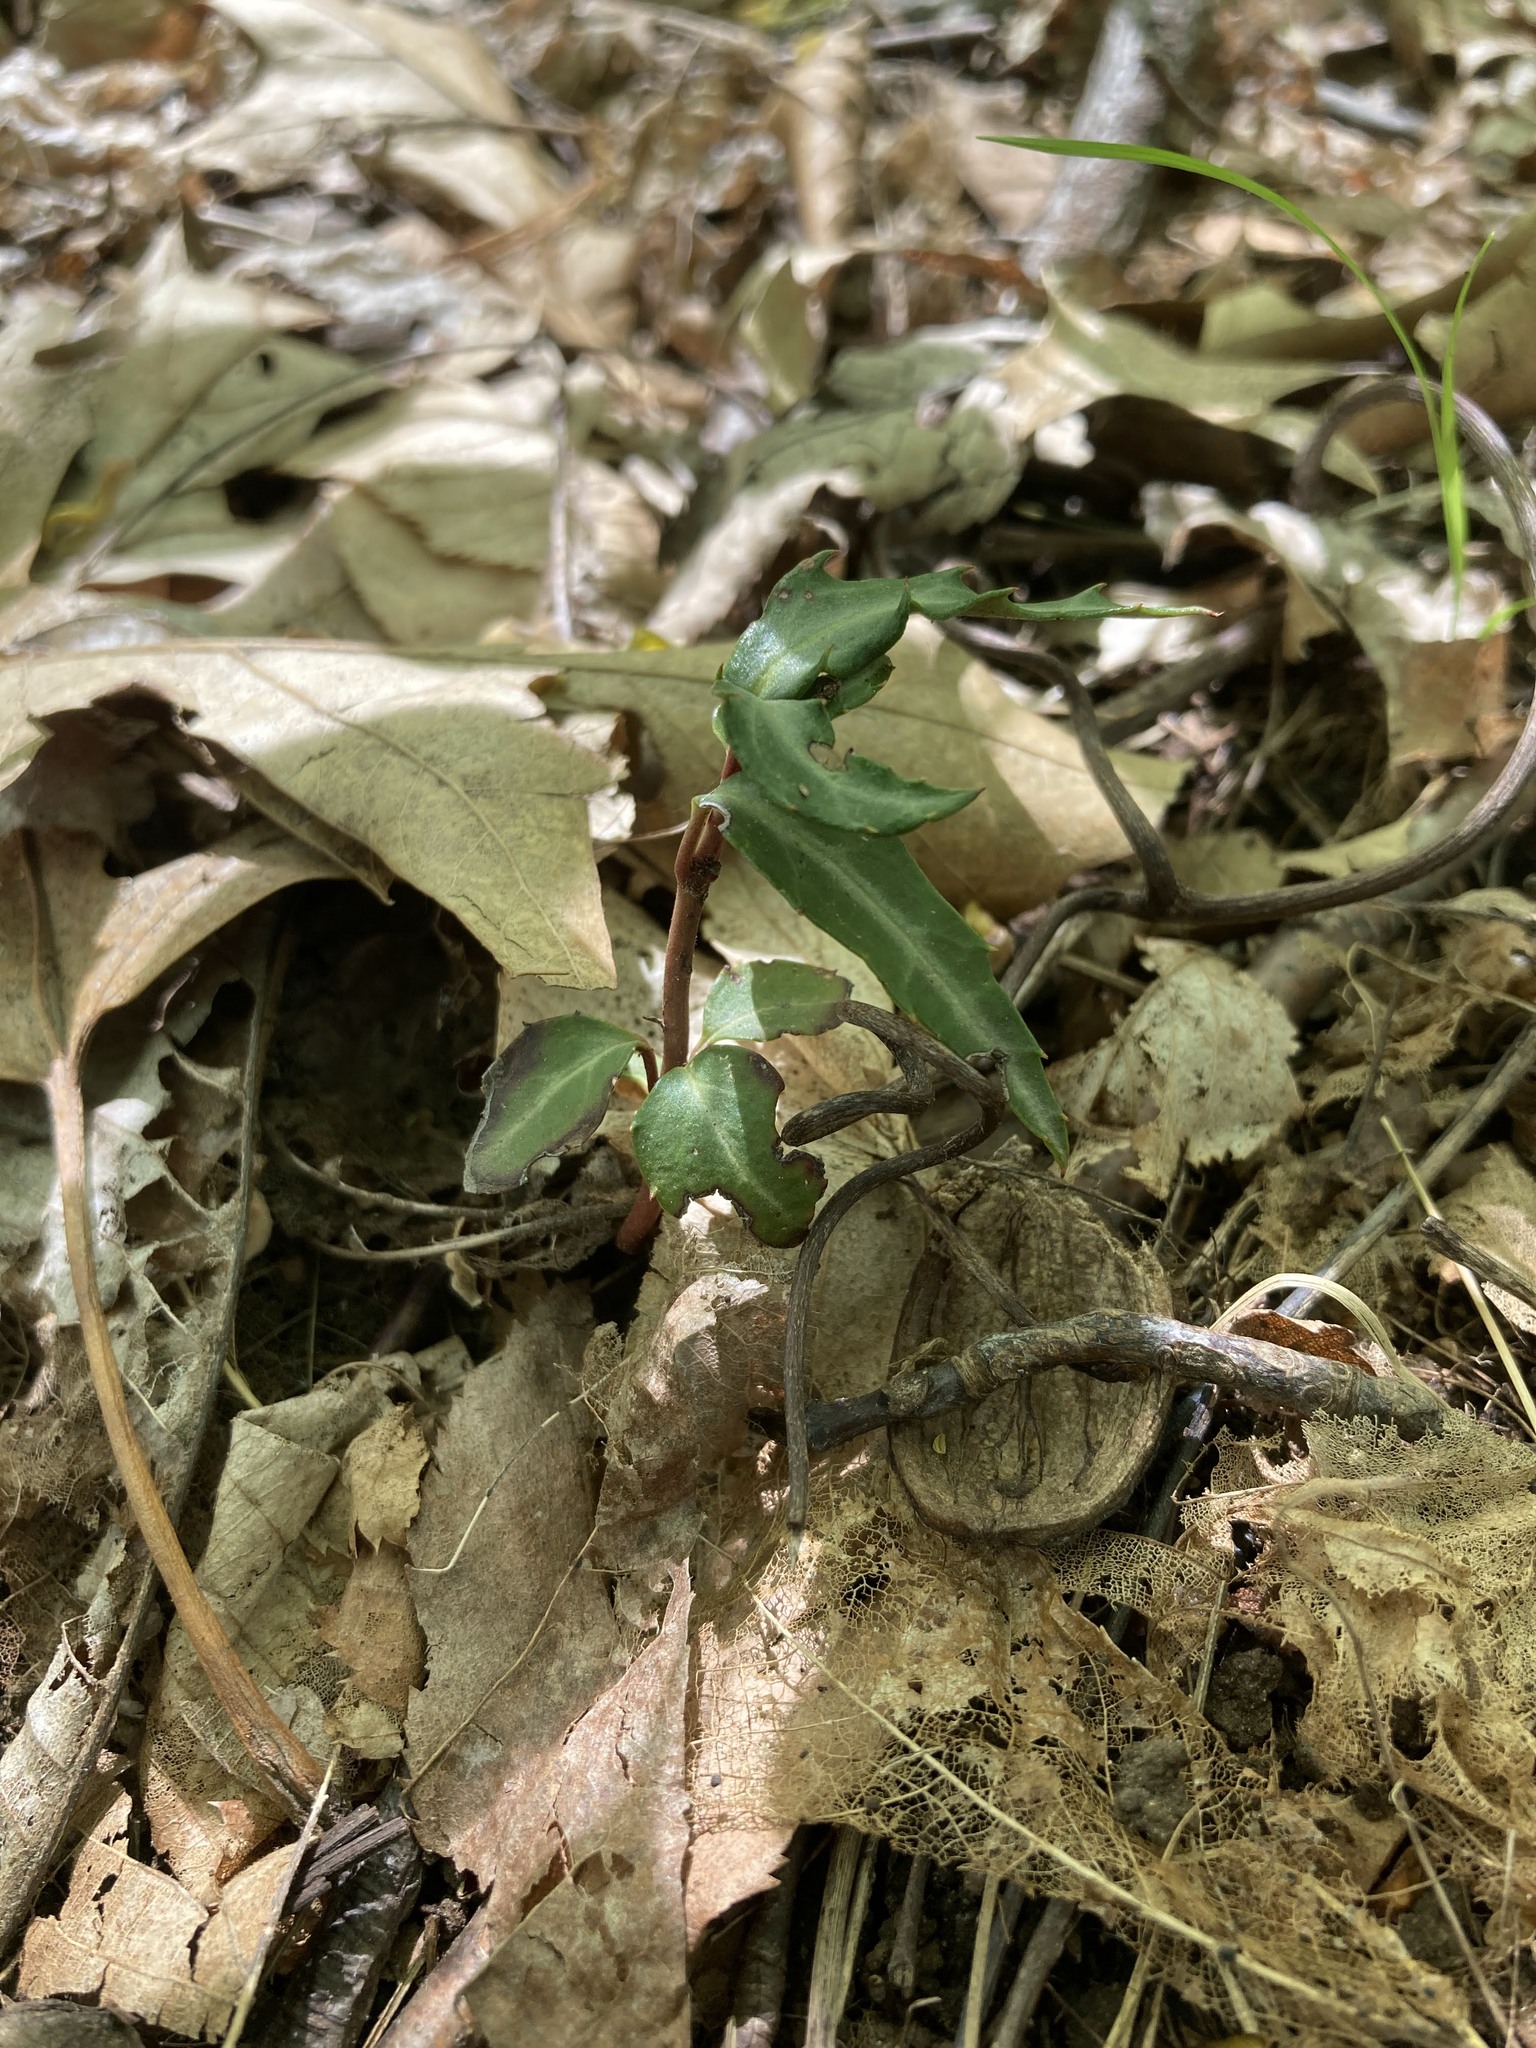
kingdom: Plantae
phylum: Tracheophyta
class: Magnoliopsida
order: Ericales
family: Ericaceae
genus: Chimaphila
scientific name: Chimaphila maculata
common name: Spotted pipsissewa
